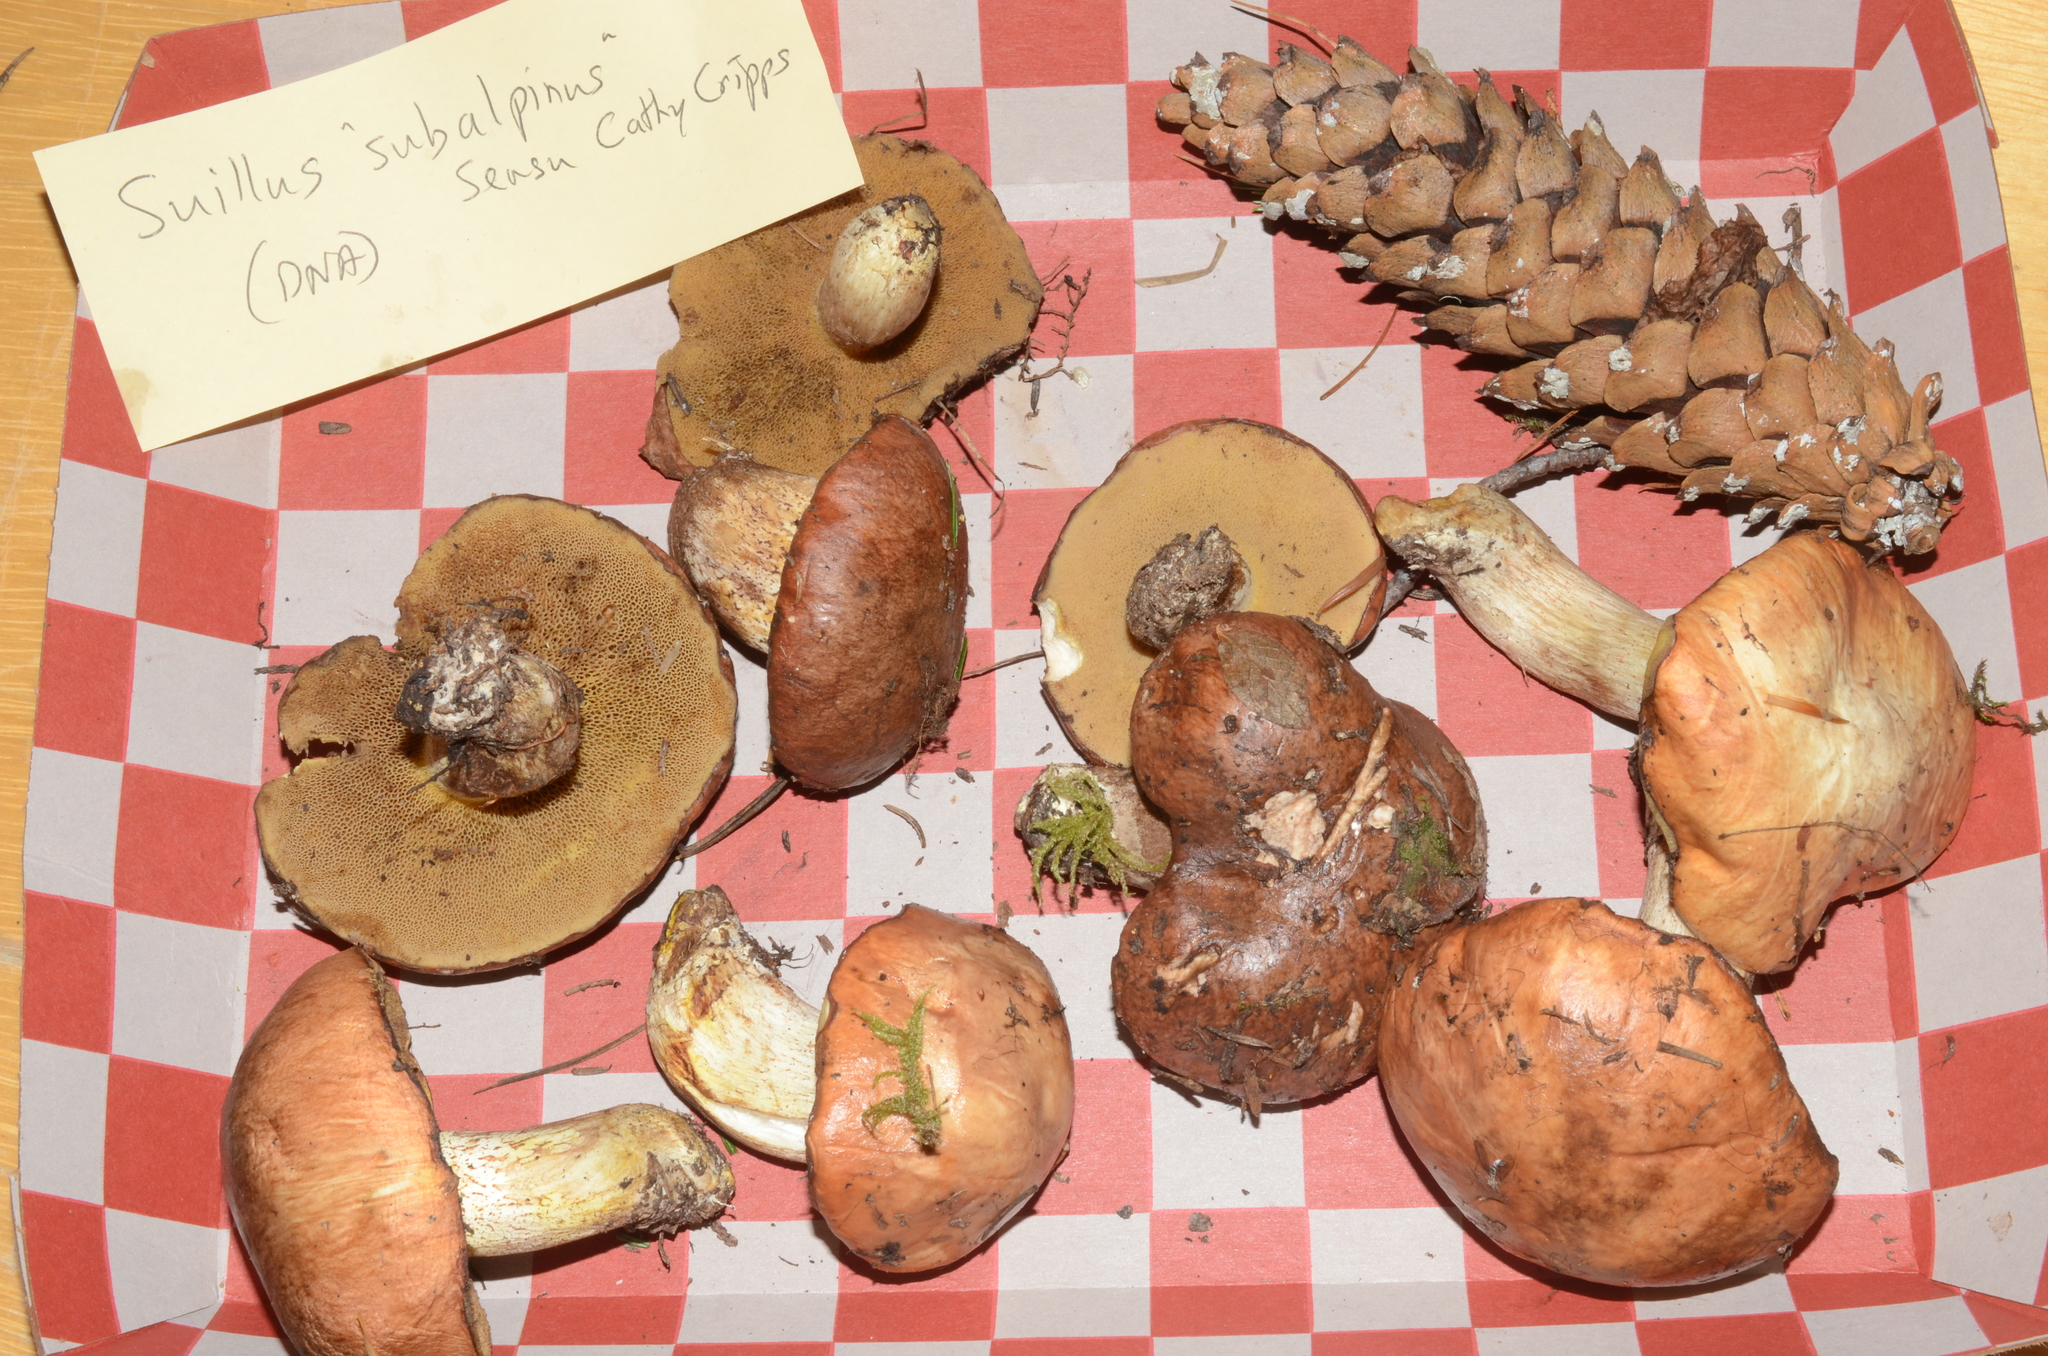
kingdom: Fungi
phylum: Basidiomycota
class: Agaricomycetes
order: Boletales
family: Suillaceae
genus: Suillus
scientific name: Suillus subalpinus
